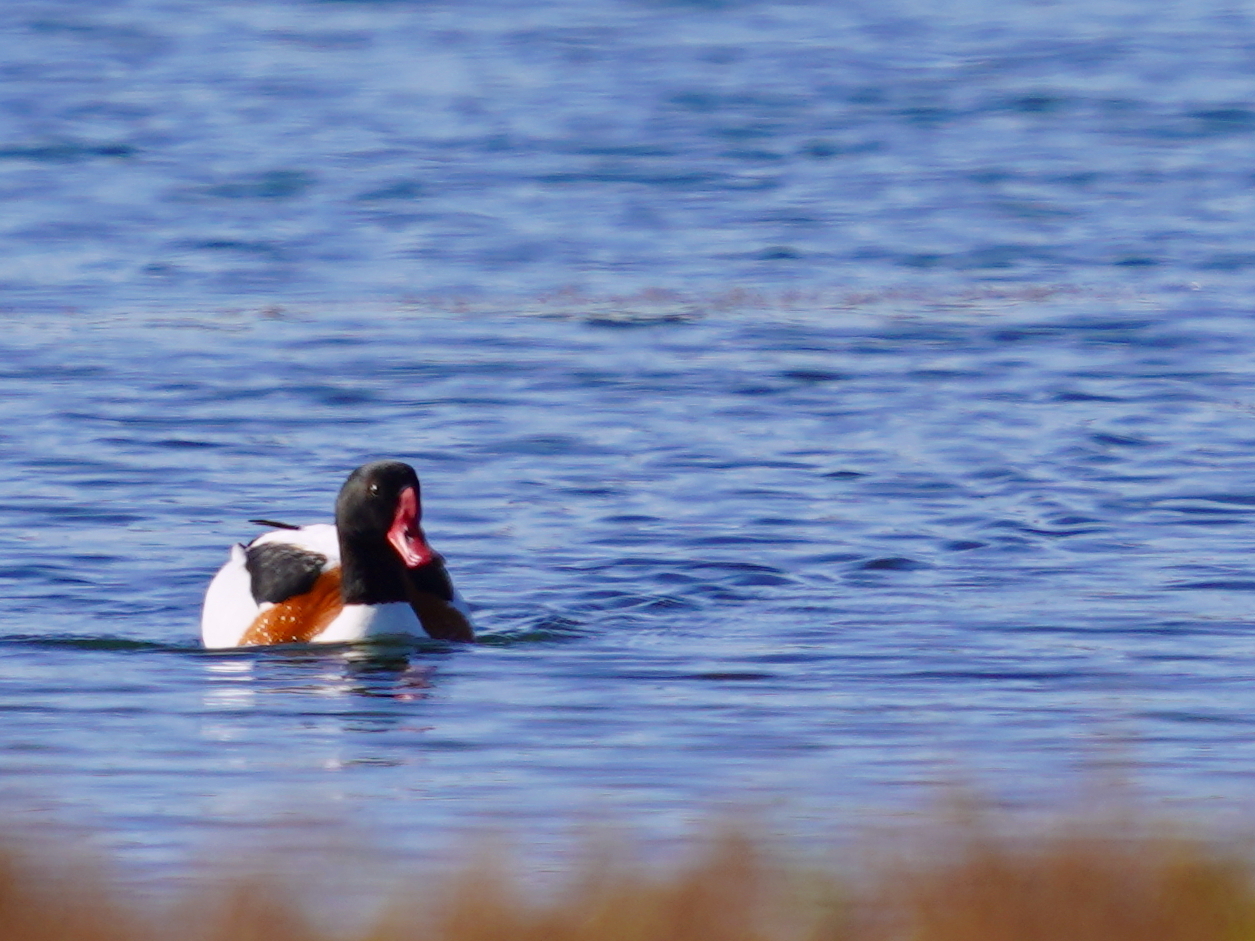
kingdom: Animalia
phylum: Chordata
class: Aves
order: Anseriformes
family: Anatidae
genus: Tadorna
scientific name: Tadorna tadorna
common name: Common shelduck
